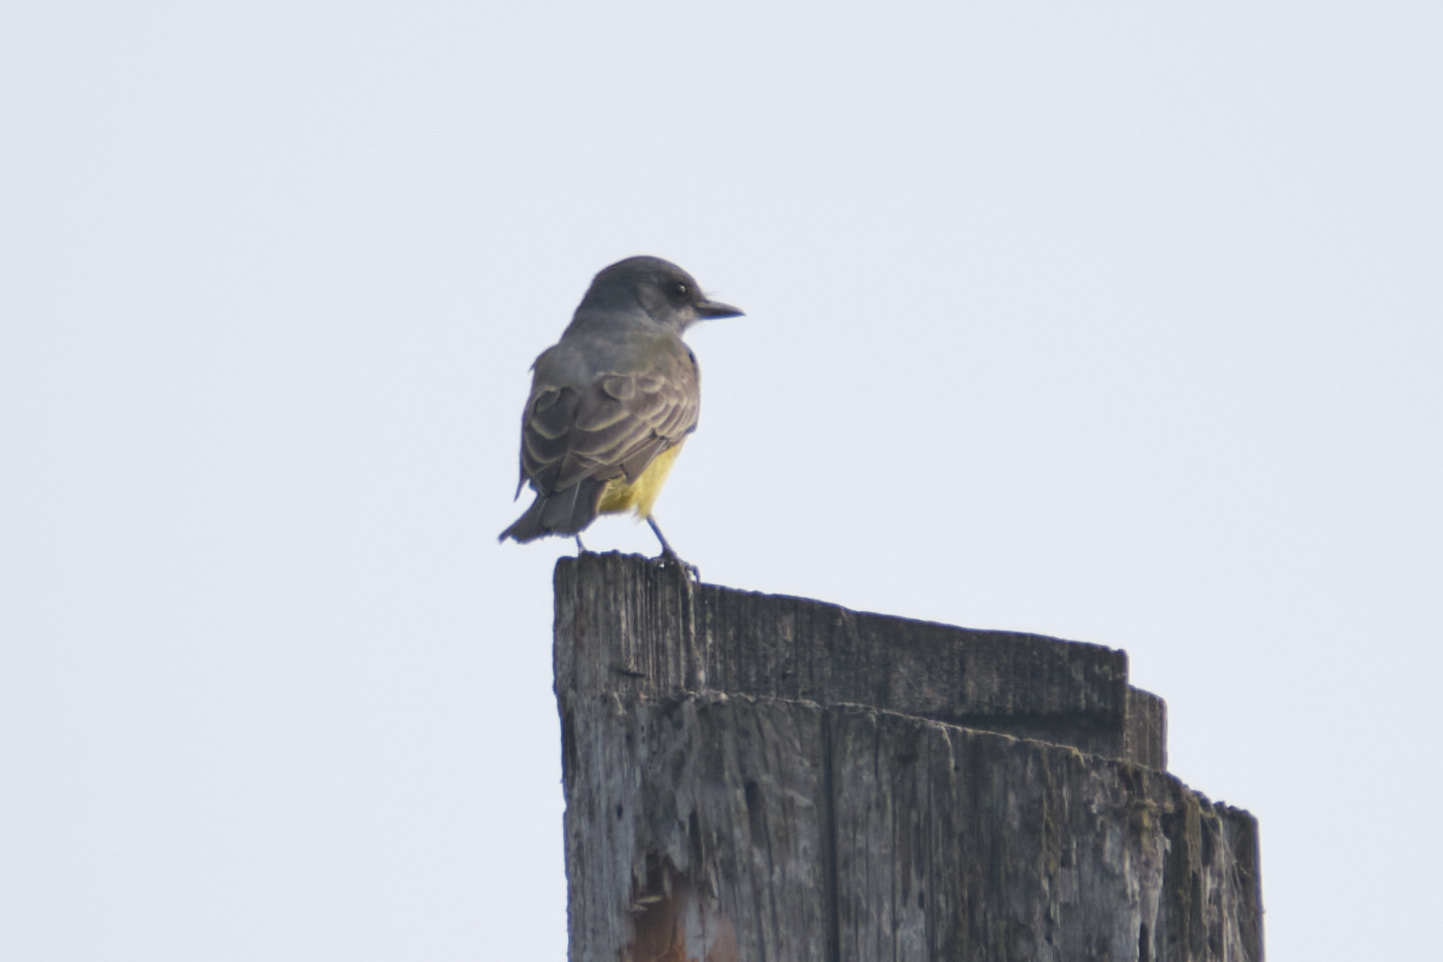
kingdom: Animalia
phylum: Chordata
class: Aves
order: Passeriformes
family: Tyrannidae
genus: Tyrannus
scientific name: Tyrannus vociferans
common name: Cassin's kingbird
